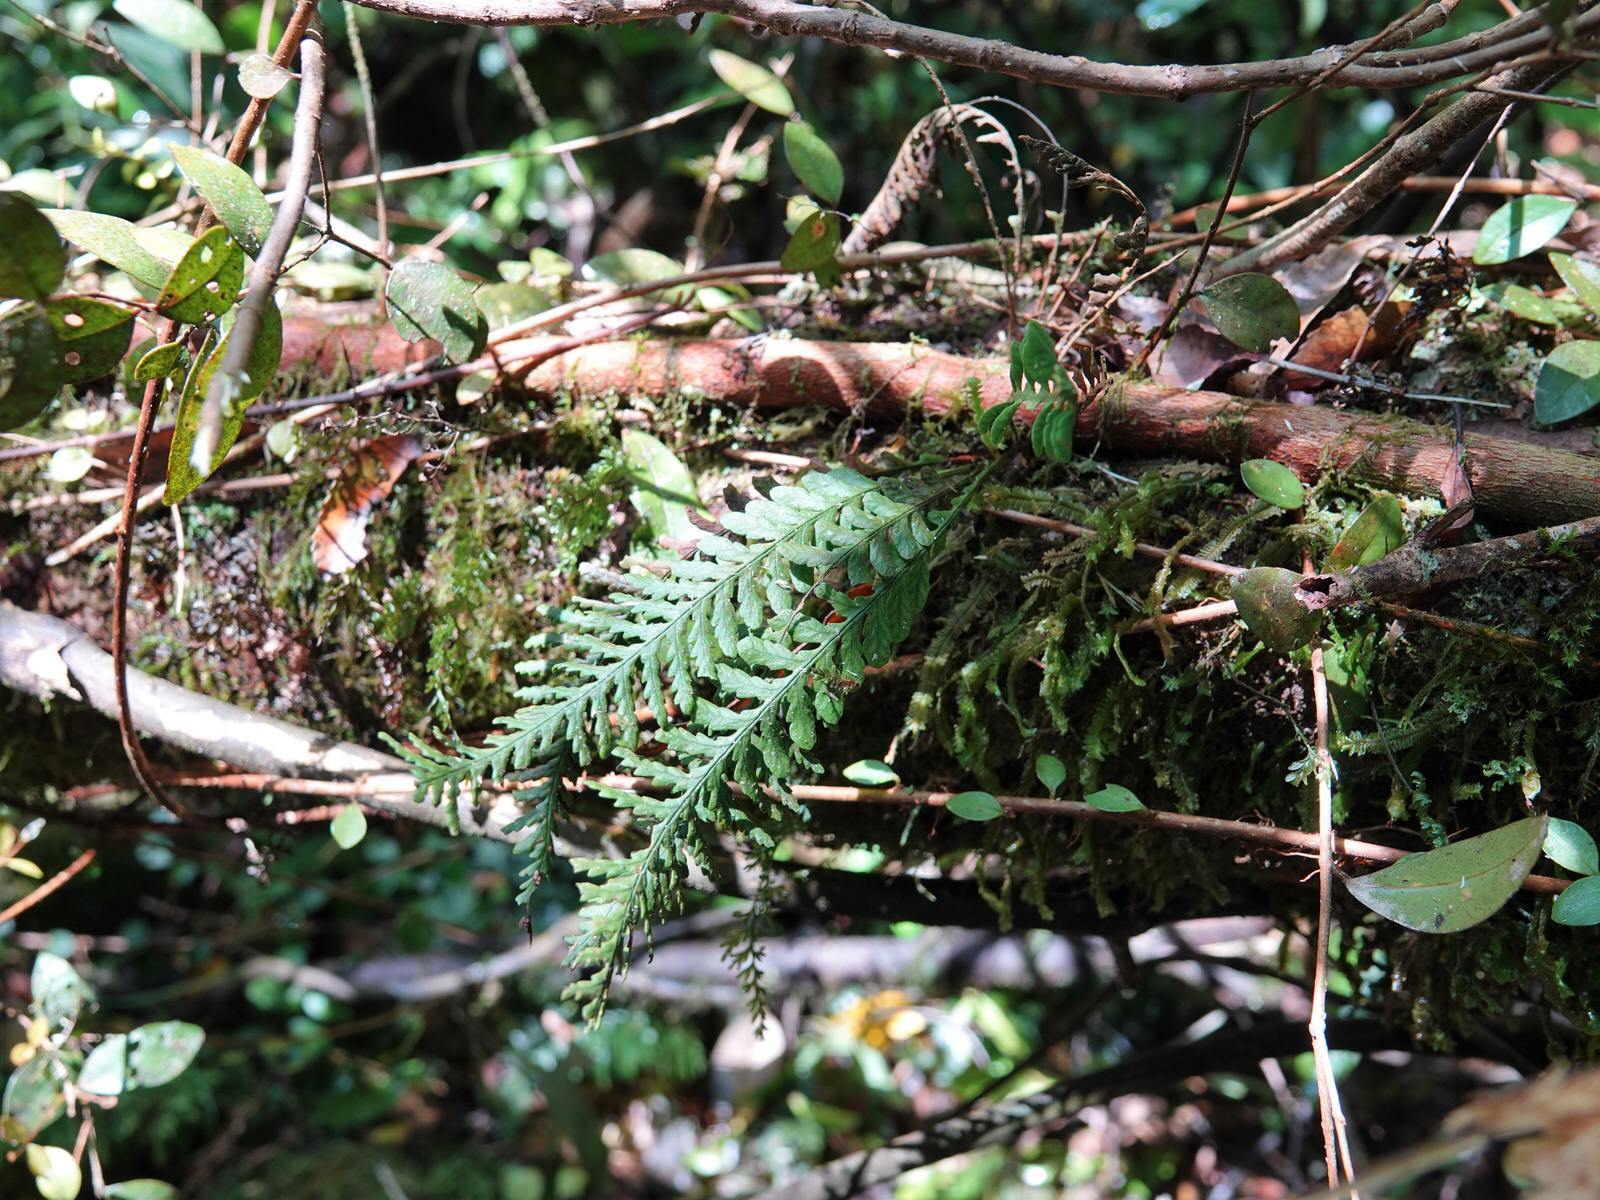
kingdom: Plantae
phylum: Tracheophyta
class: Polypodiopsida
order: Polypodiales
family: Polypodiaceae
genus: Notogrammitis
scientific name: Notogrammitis heterophylla
